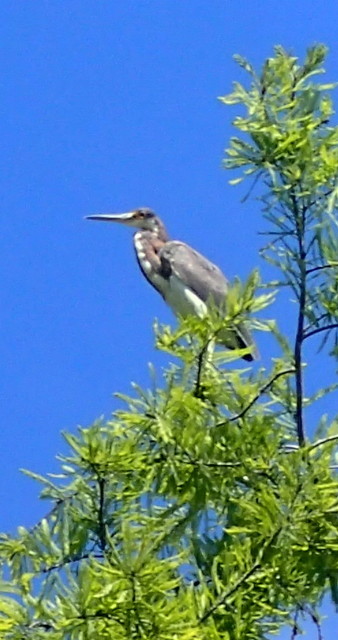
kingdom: Animalia
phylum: Chordata
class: Aves
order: Pelecaniformes
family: Ardeidae
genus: Egretta
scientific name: Egretta tricolor
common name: Tricolored heron
